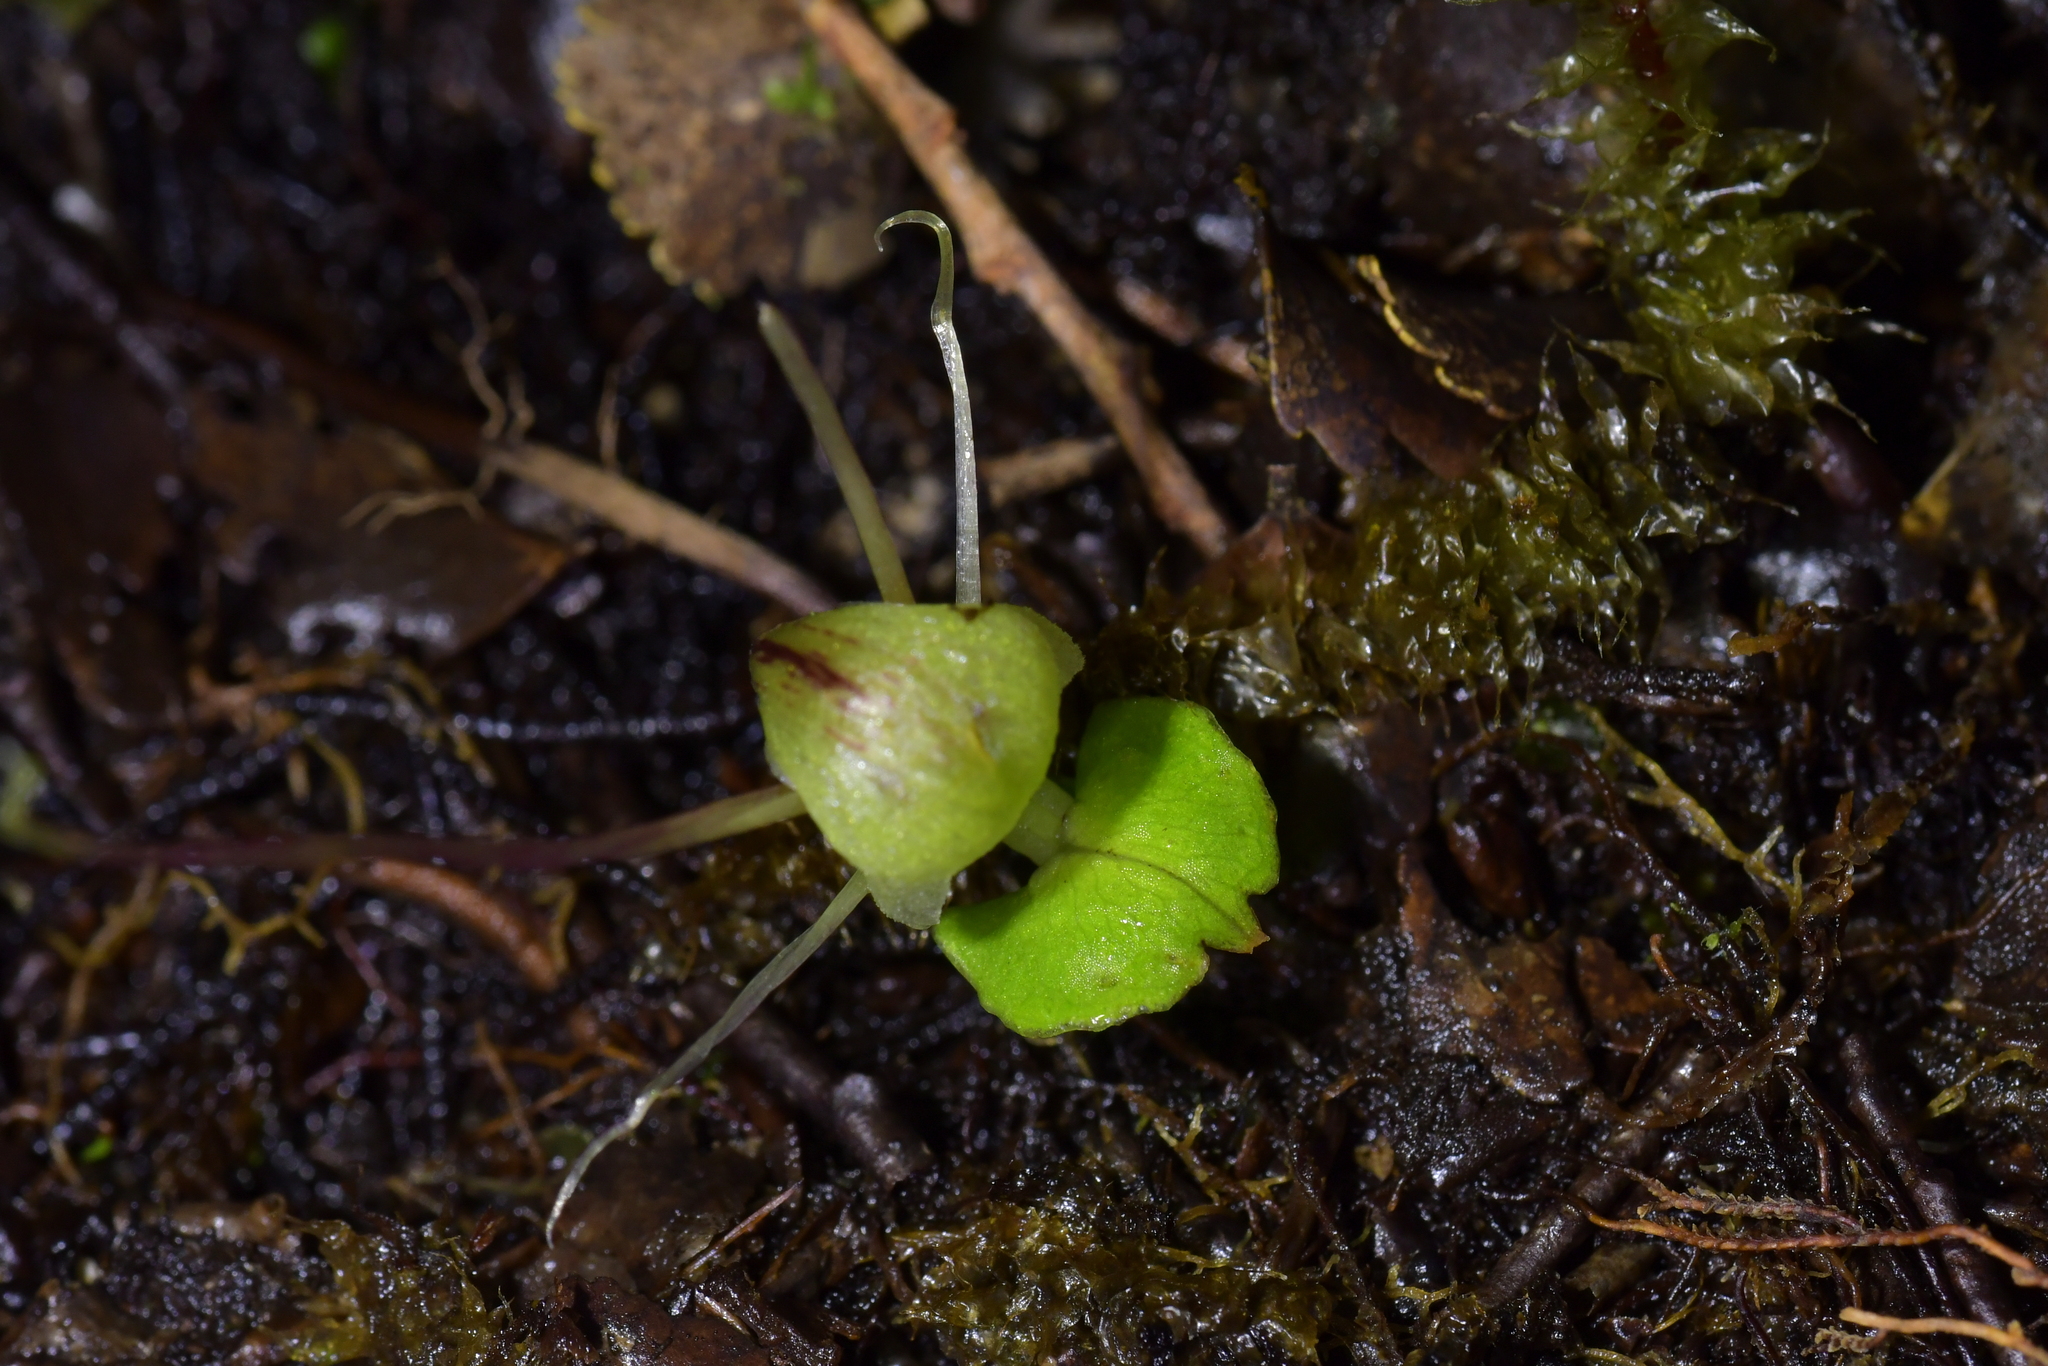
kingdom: Plantae
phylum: Tracheophyta
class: Liliopsida
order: Asparagales
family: Orchidaceae
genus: Corybas
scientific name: Corybas walliae
